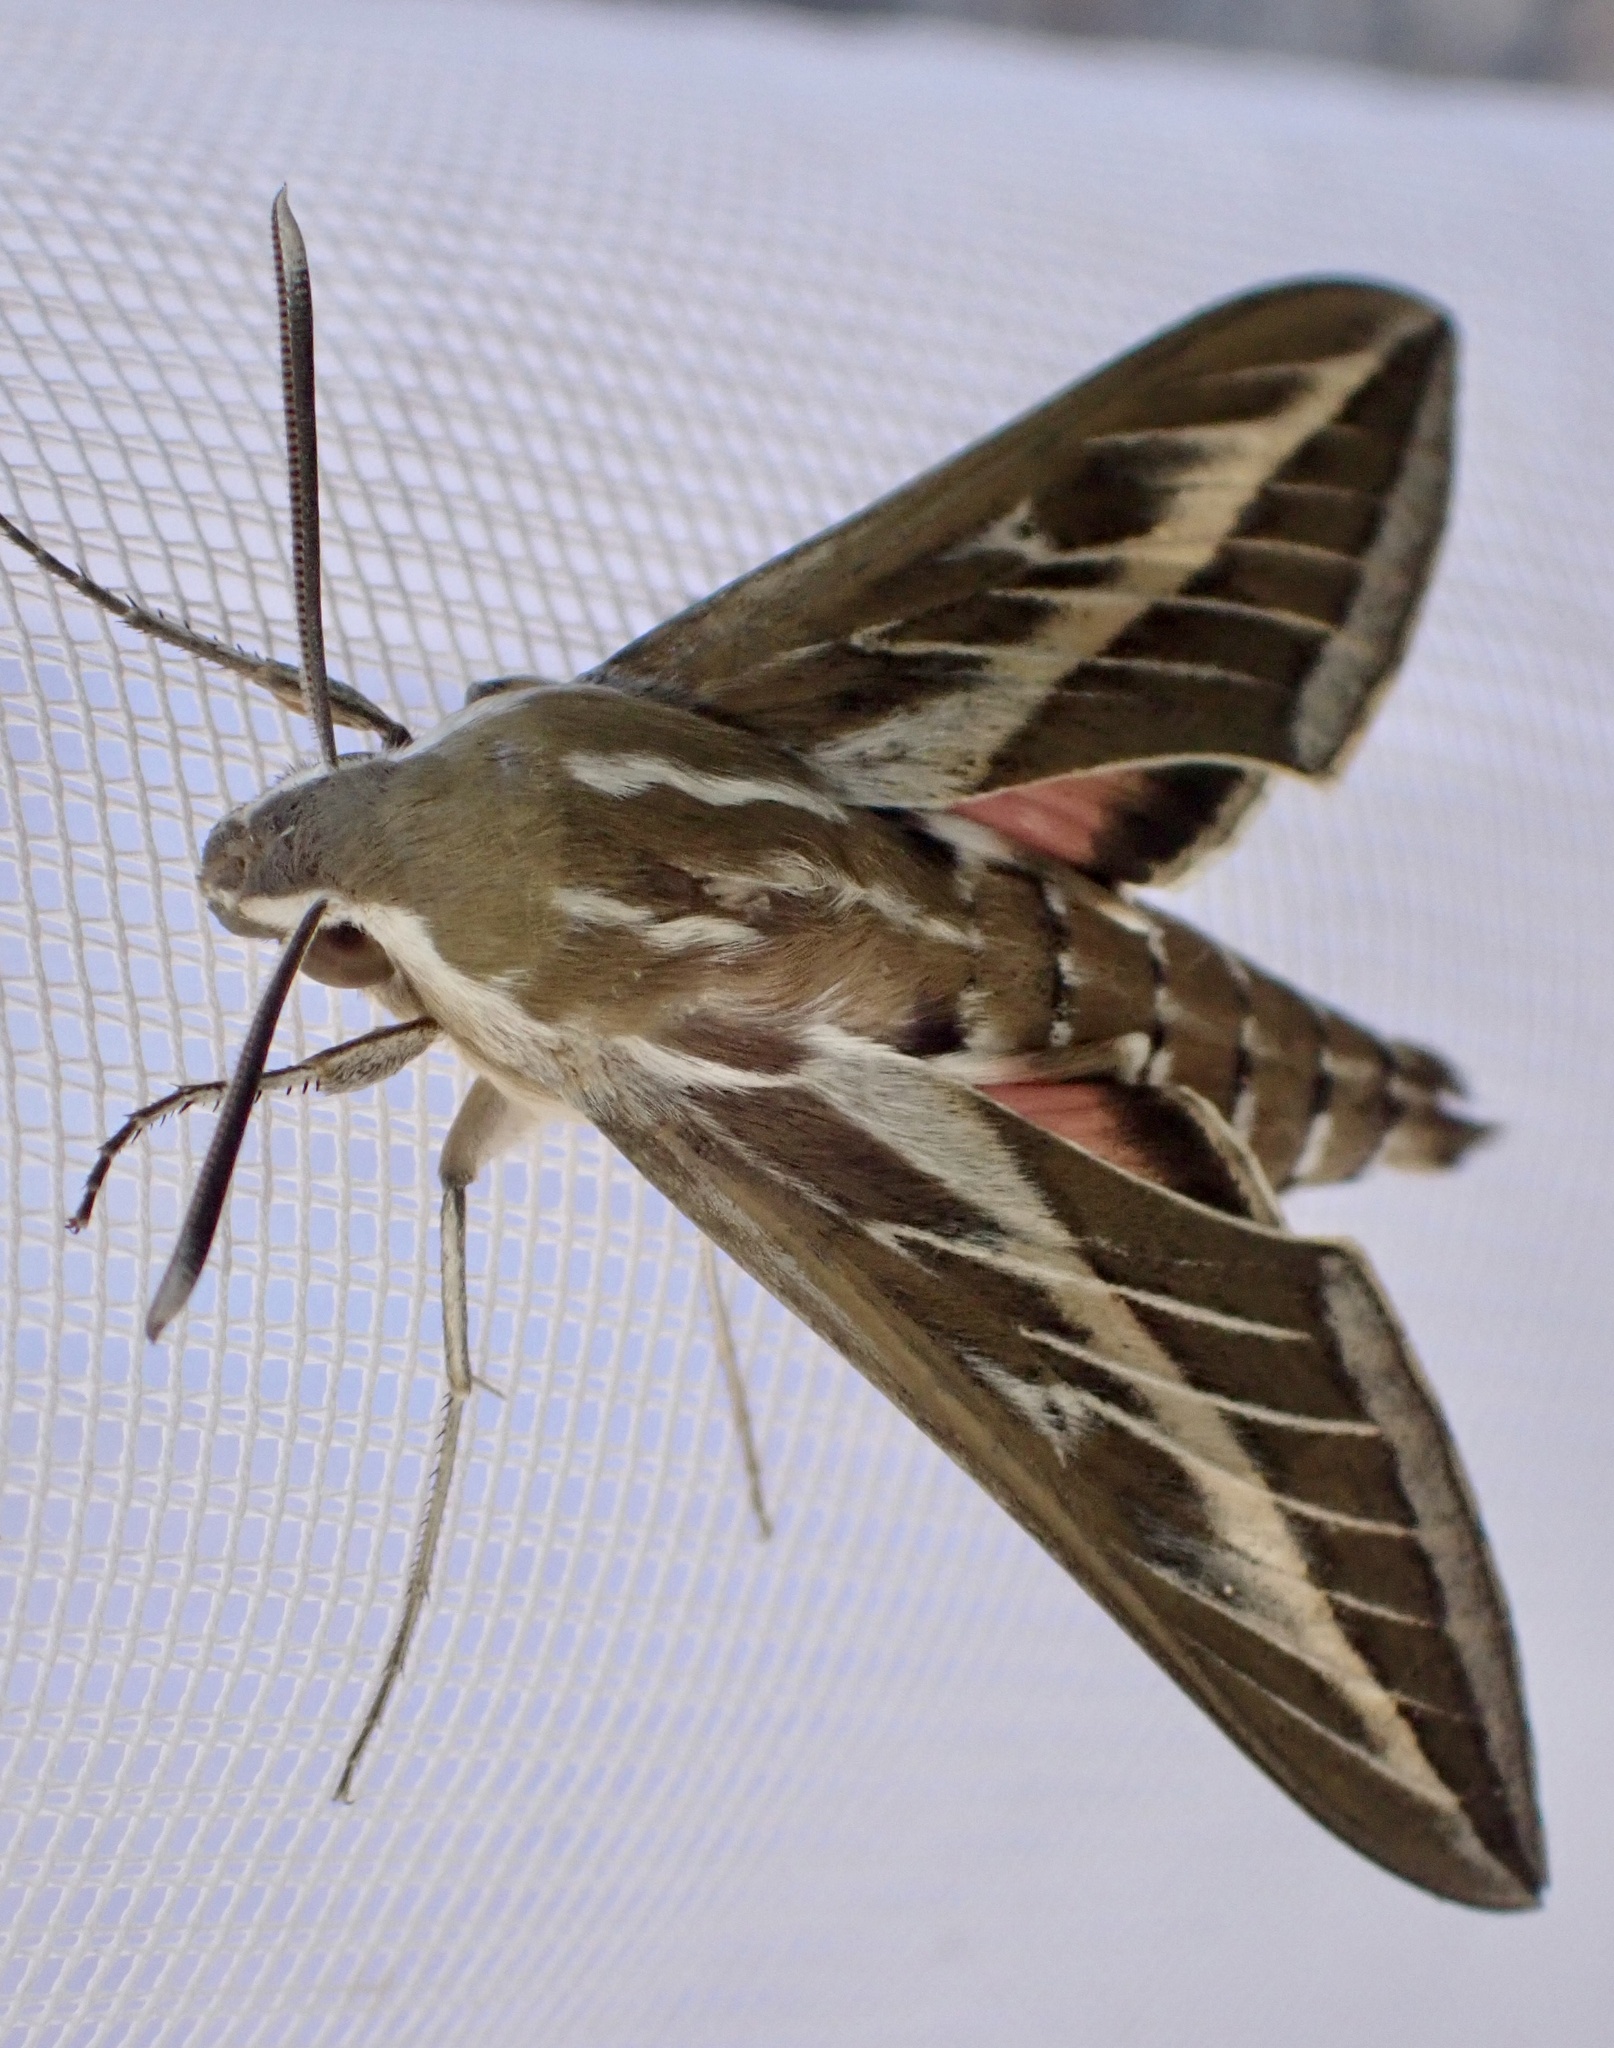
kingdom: Animalia
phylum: Arthropoda
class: Insecta
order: Lepidoptera
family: Sphingidae
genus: Hyles
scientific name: Hyles livornica
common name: Striped hawk-moth
